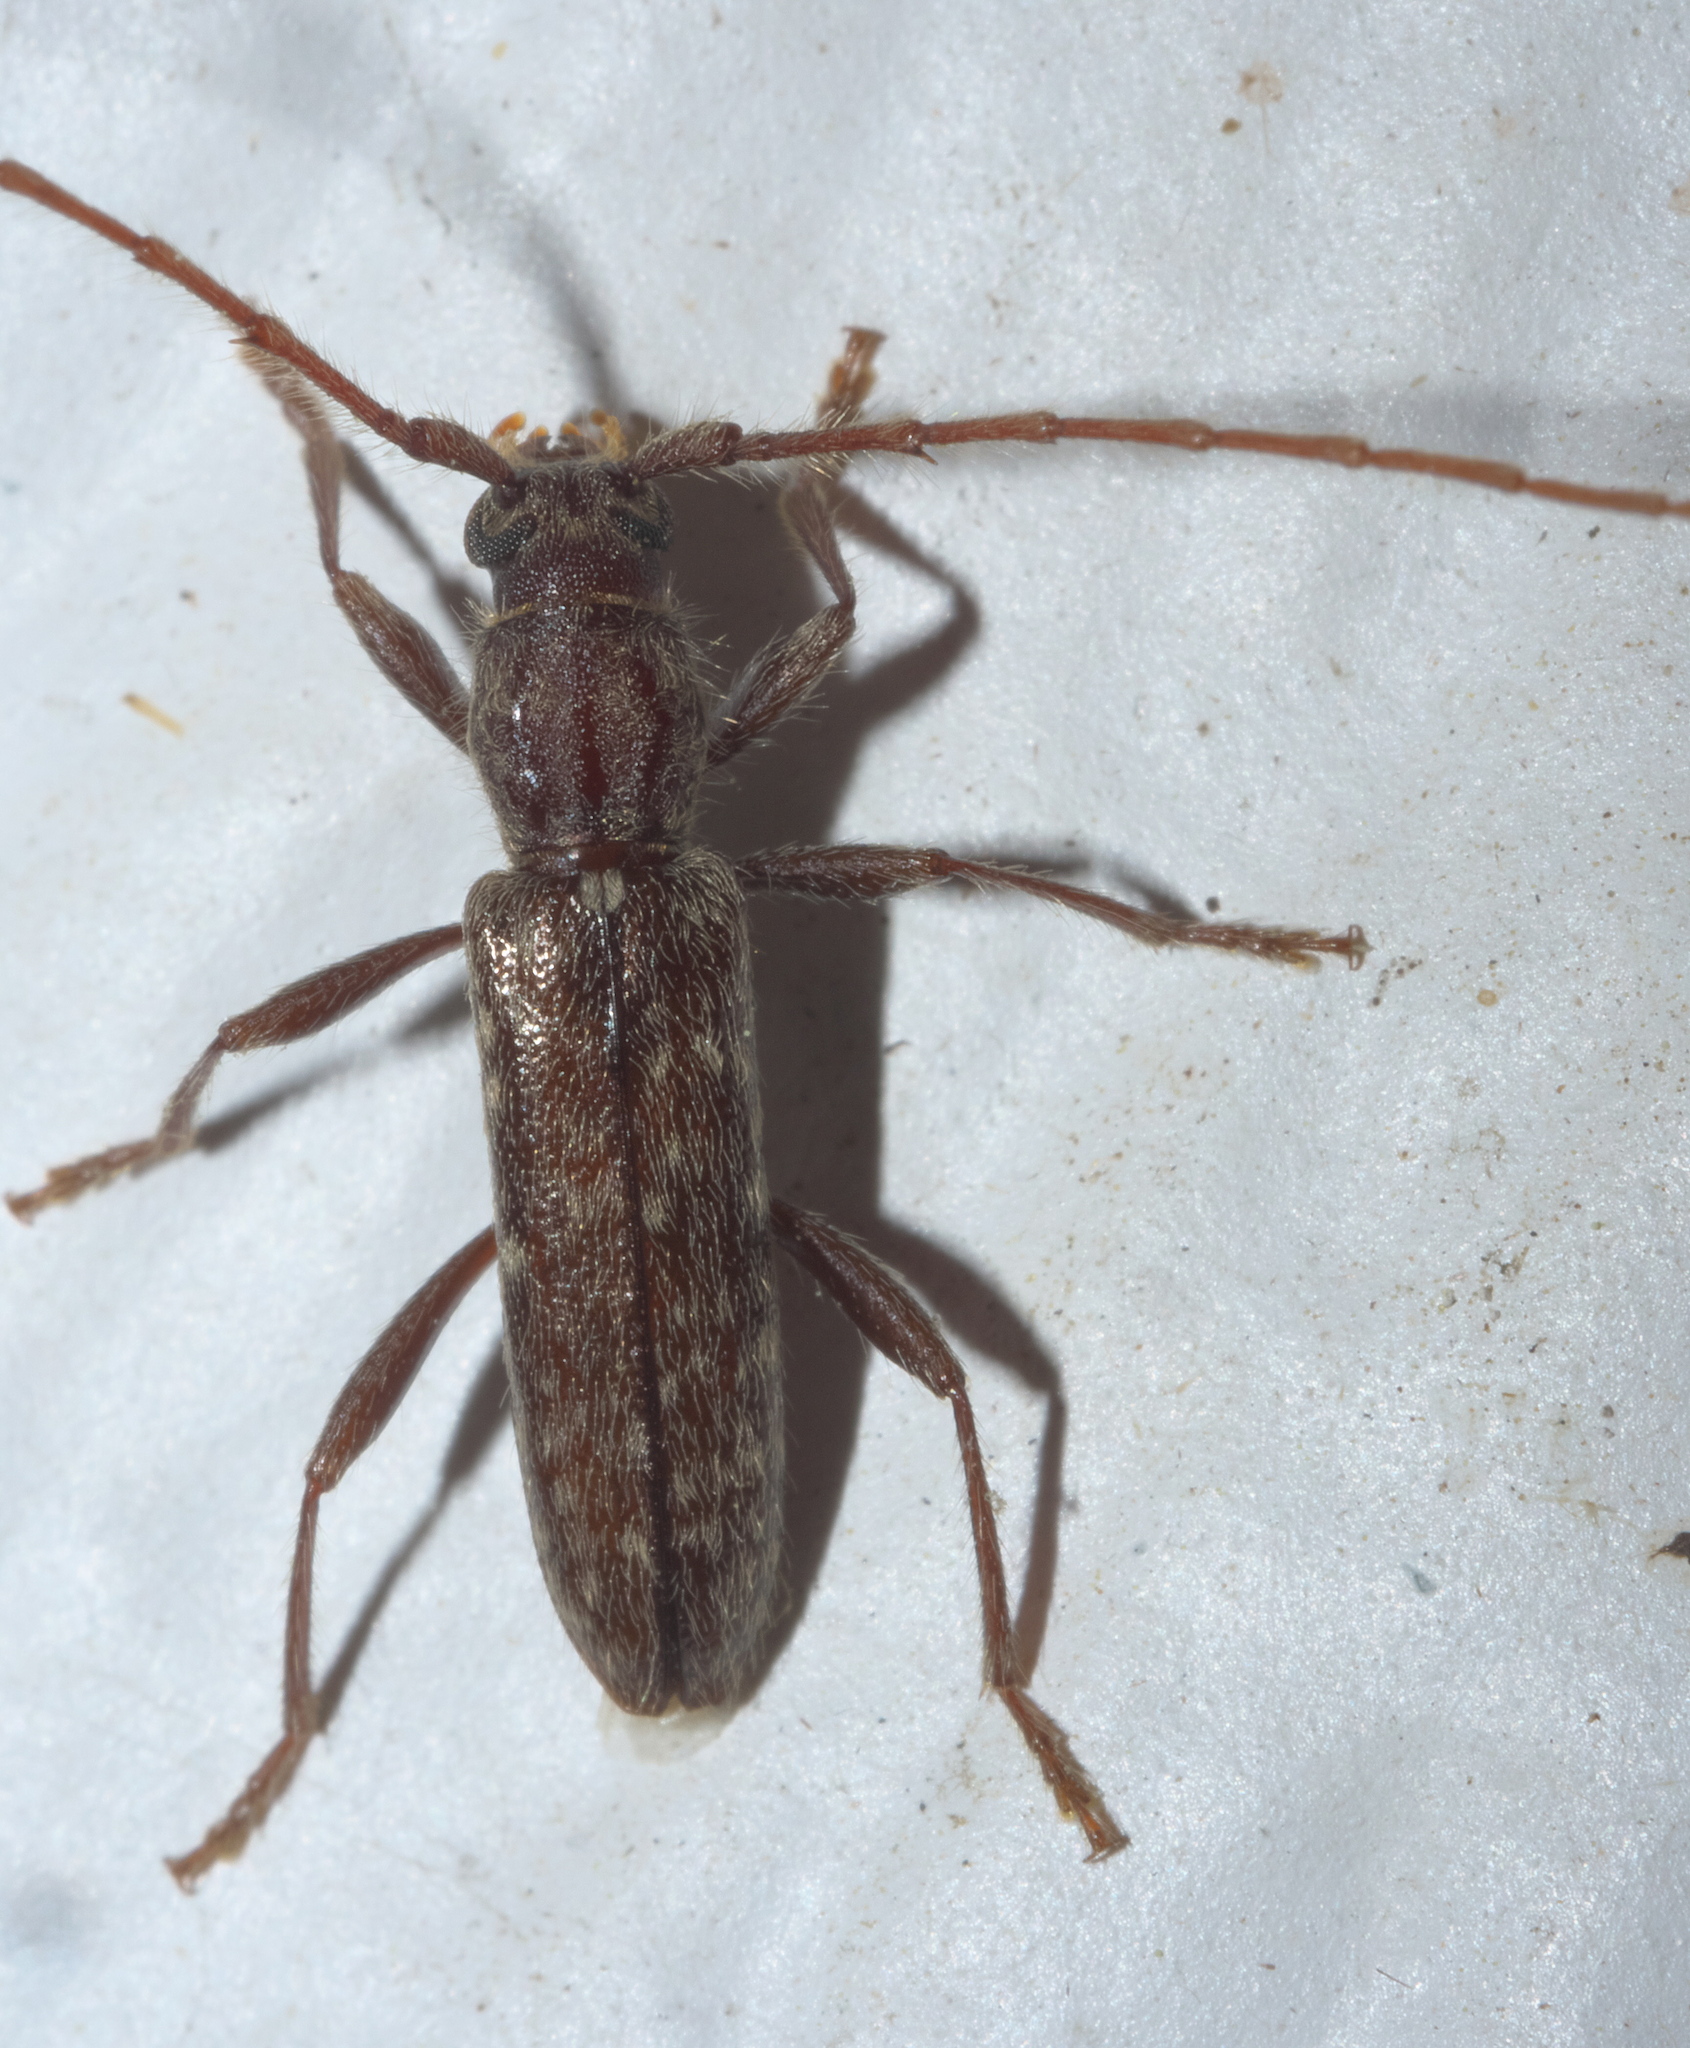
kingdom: Animalia
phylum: Arthropoda
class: Insecta
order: Coleoptera
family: Cerambycidae
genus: Anelaphus
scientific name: Anelaphus pumilus
